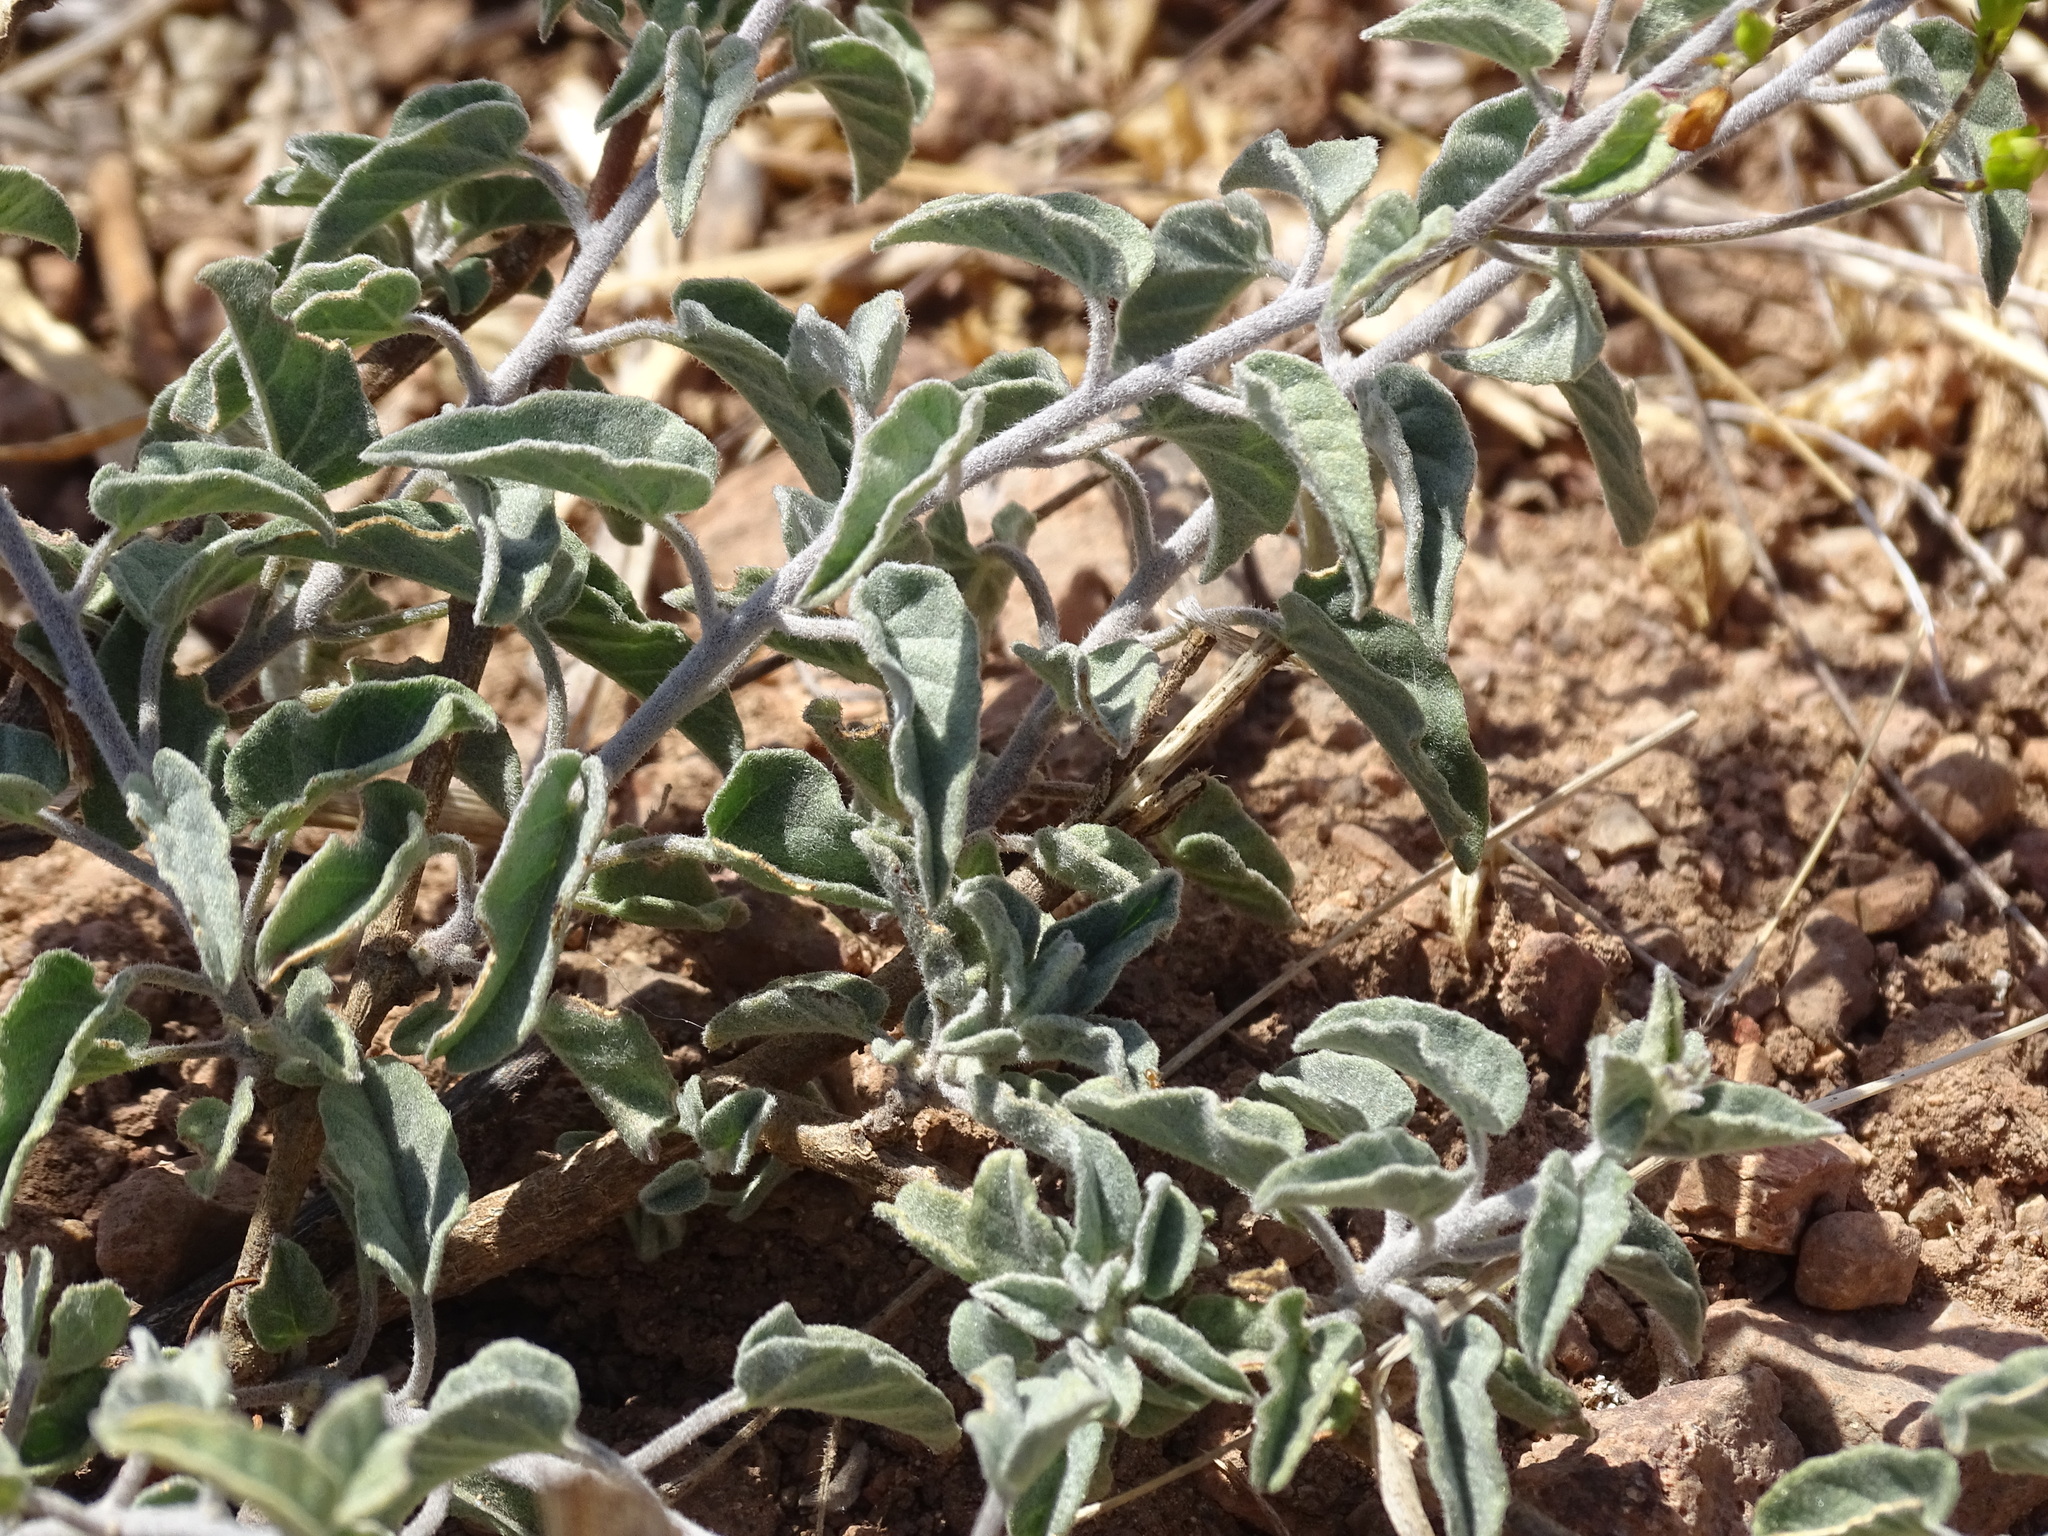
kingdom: Plantae
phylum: Tracheophyta
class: Magnoliopsida
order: Solanales
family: Convolvulaceae
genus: Jacquemontia
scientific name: Jacquemontia pringlei
